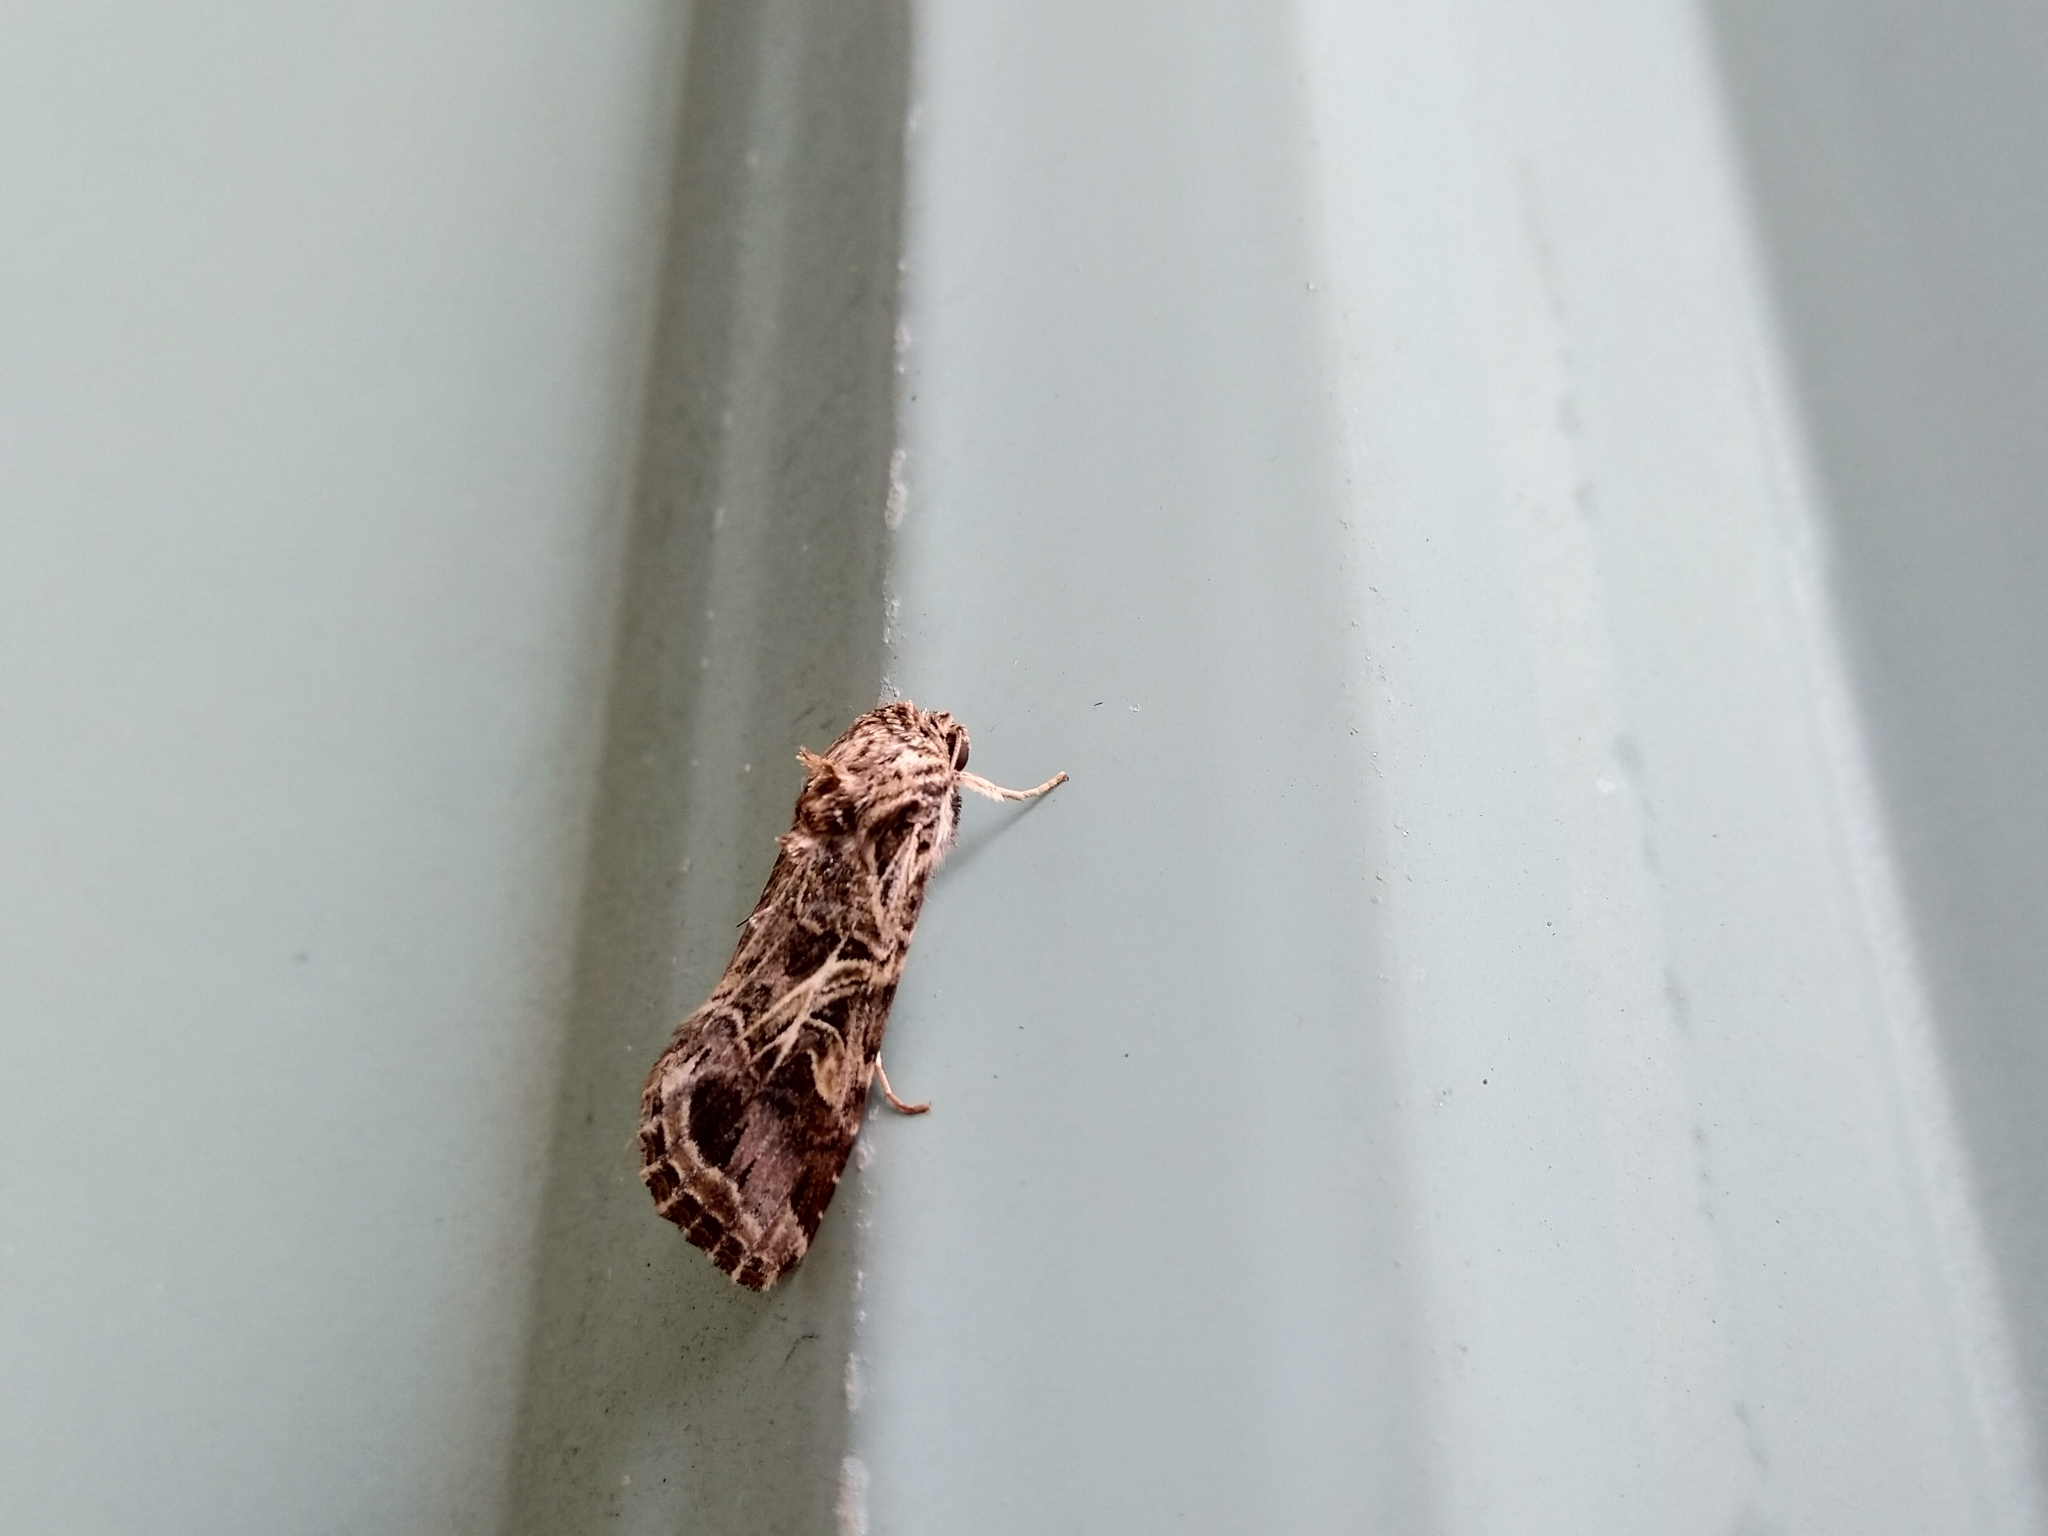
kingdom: Animalia
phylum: Arthropoda
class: Insecta
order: Lepidoptera
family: Noctuidae
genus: Spodoptera
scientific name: Spodoptera litura
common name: Asian cotton leafworm
